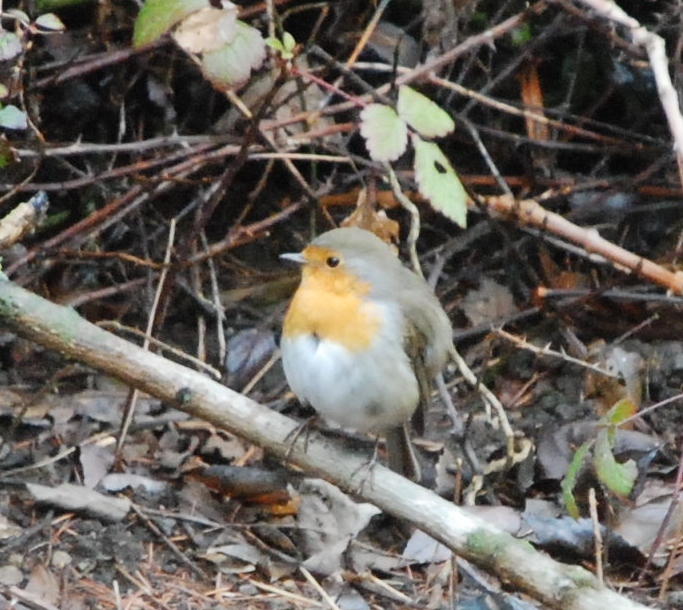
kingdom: Animalia
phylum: Chordata
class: Aves
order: Passeriformes
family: Muscicapidae
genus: Erithacus
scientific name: Erithacus rubecula
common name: European robin
